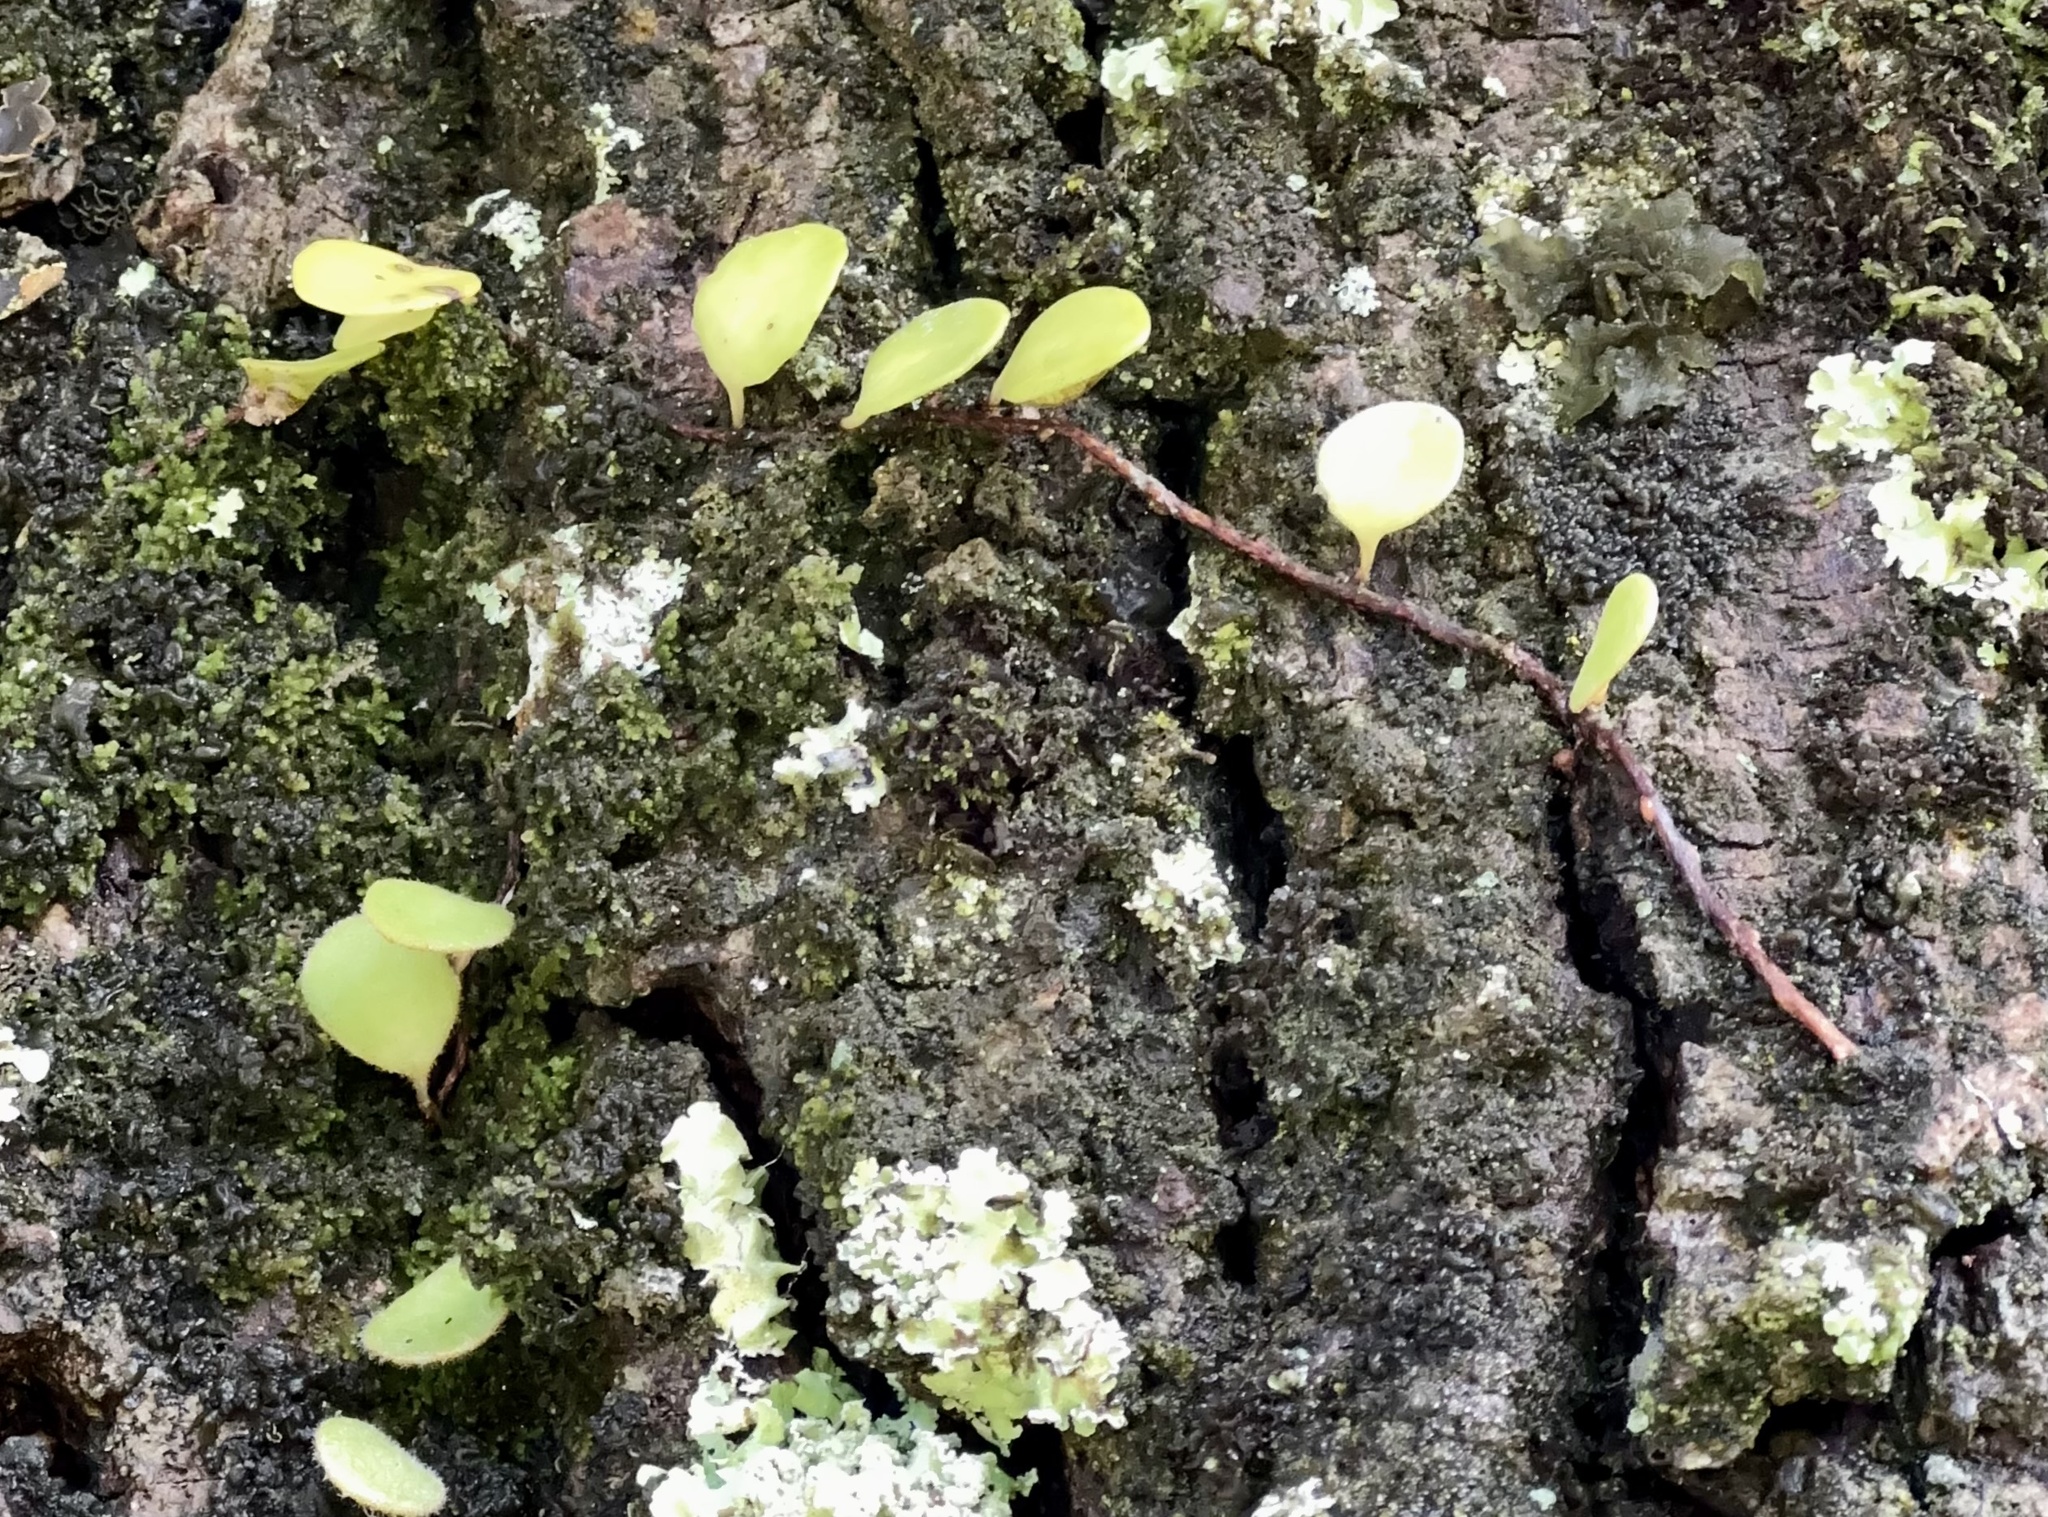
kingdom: Plantae
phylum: Tracheophyta
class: Polypodiopsida
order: Polypodiales
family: Polypodiaceae
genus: Pyrrosia
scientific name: Pyrrosia eleagnifolia
